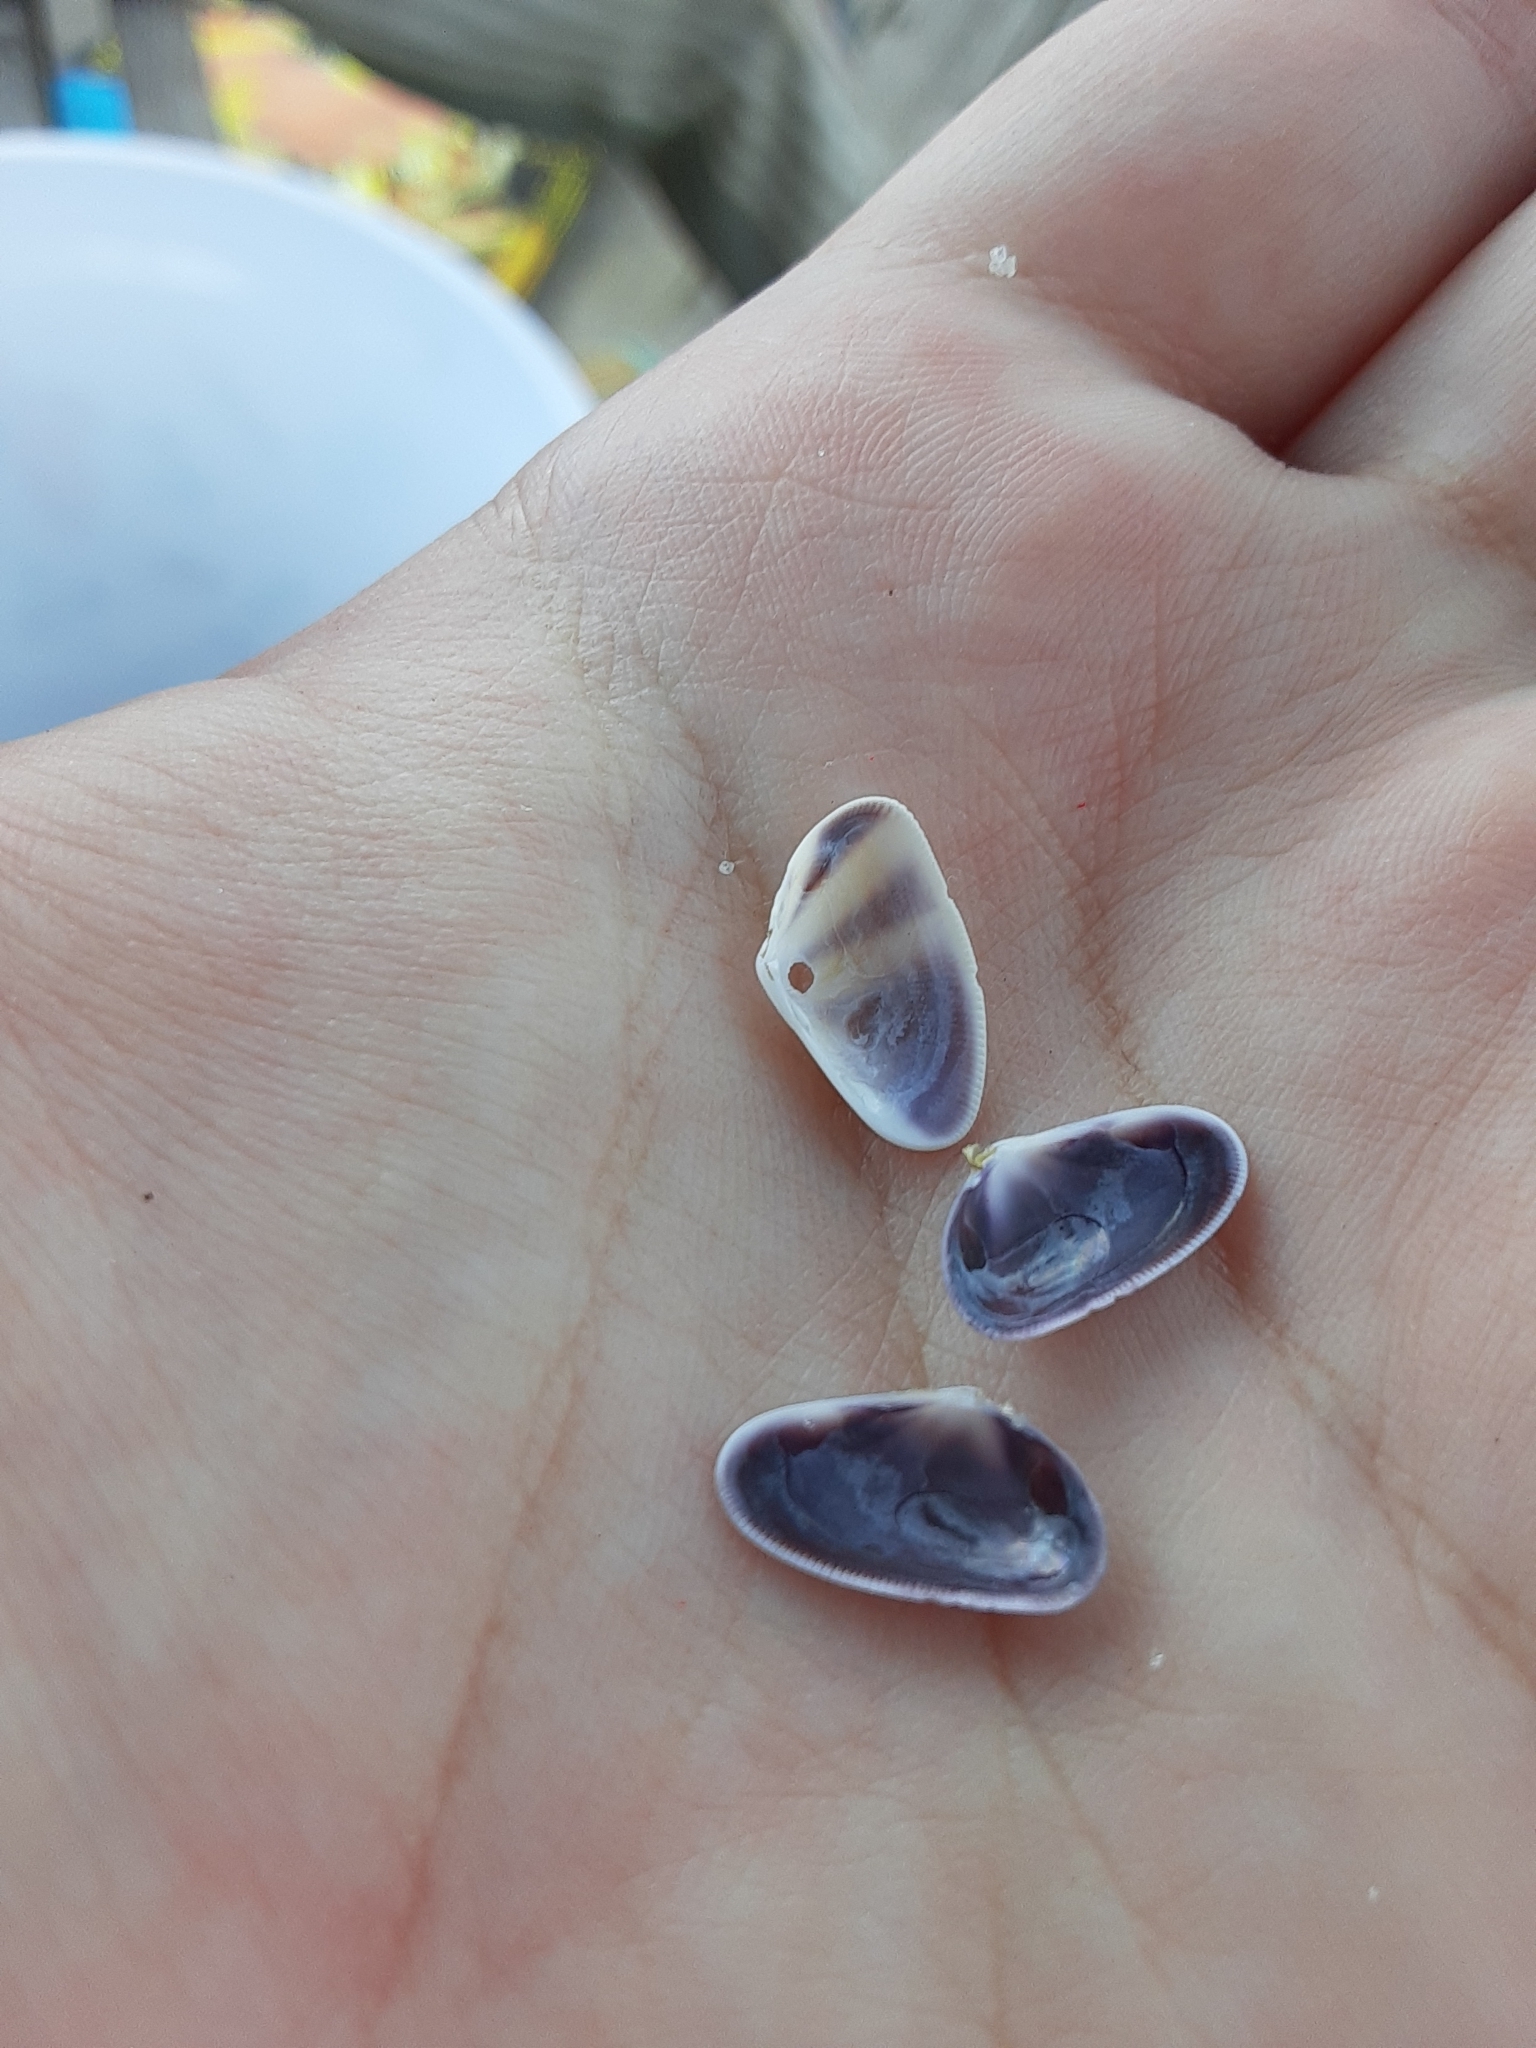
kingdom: Animalia
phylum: Mollusca
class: Bivalvia
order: Cardiida
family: Donacidae
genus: Donax
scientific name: Donax fossor
